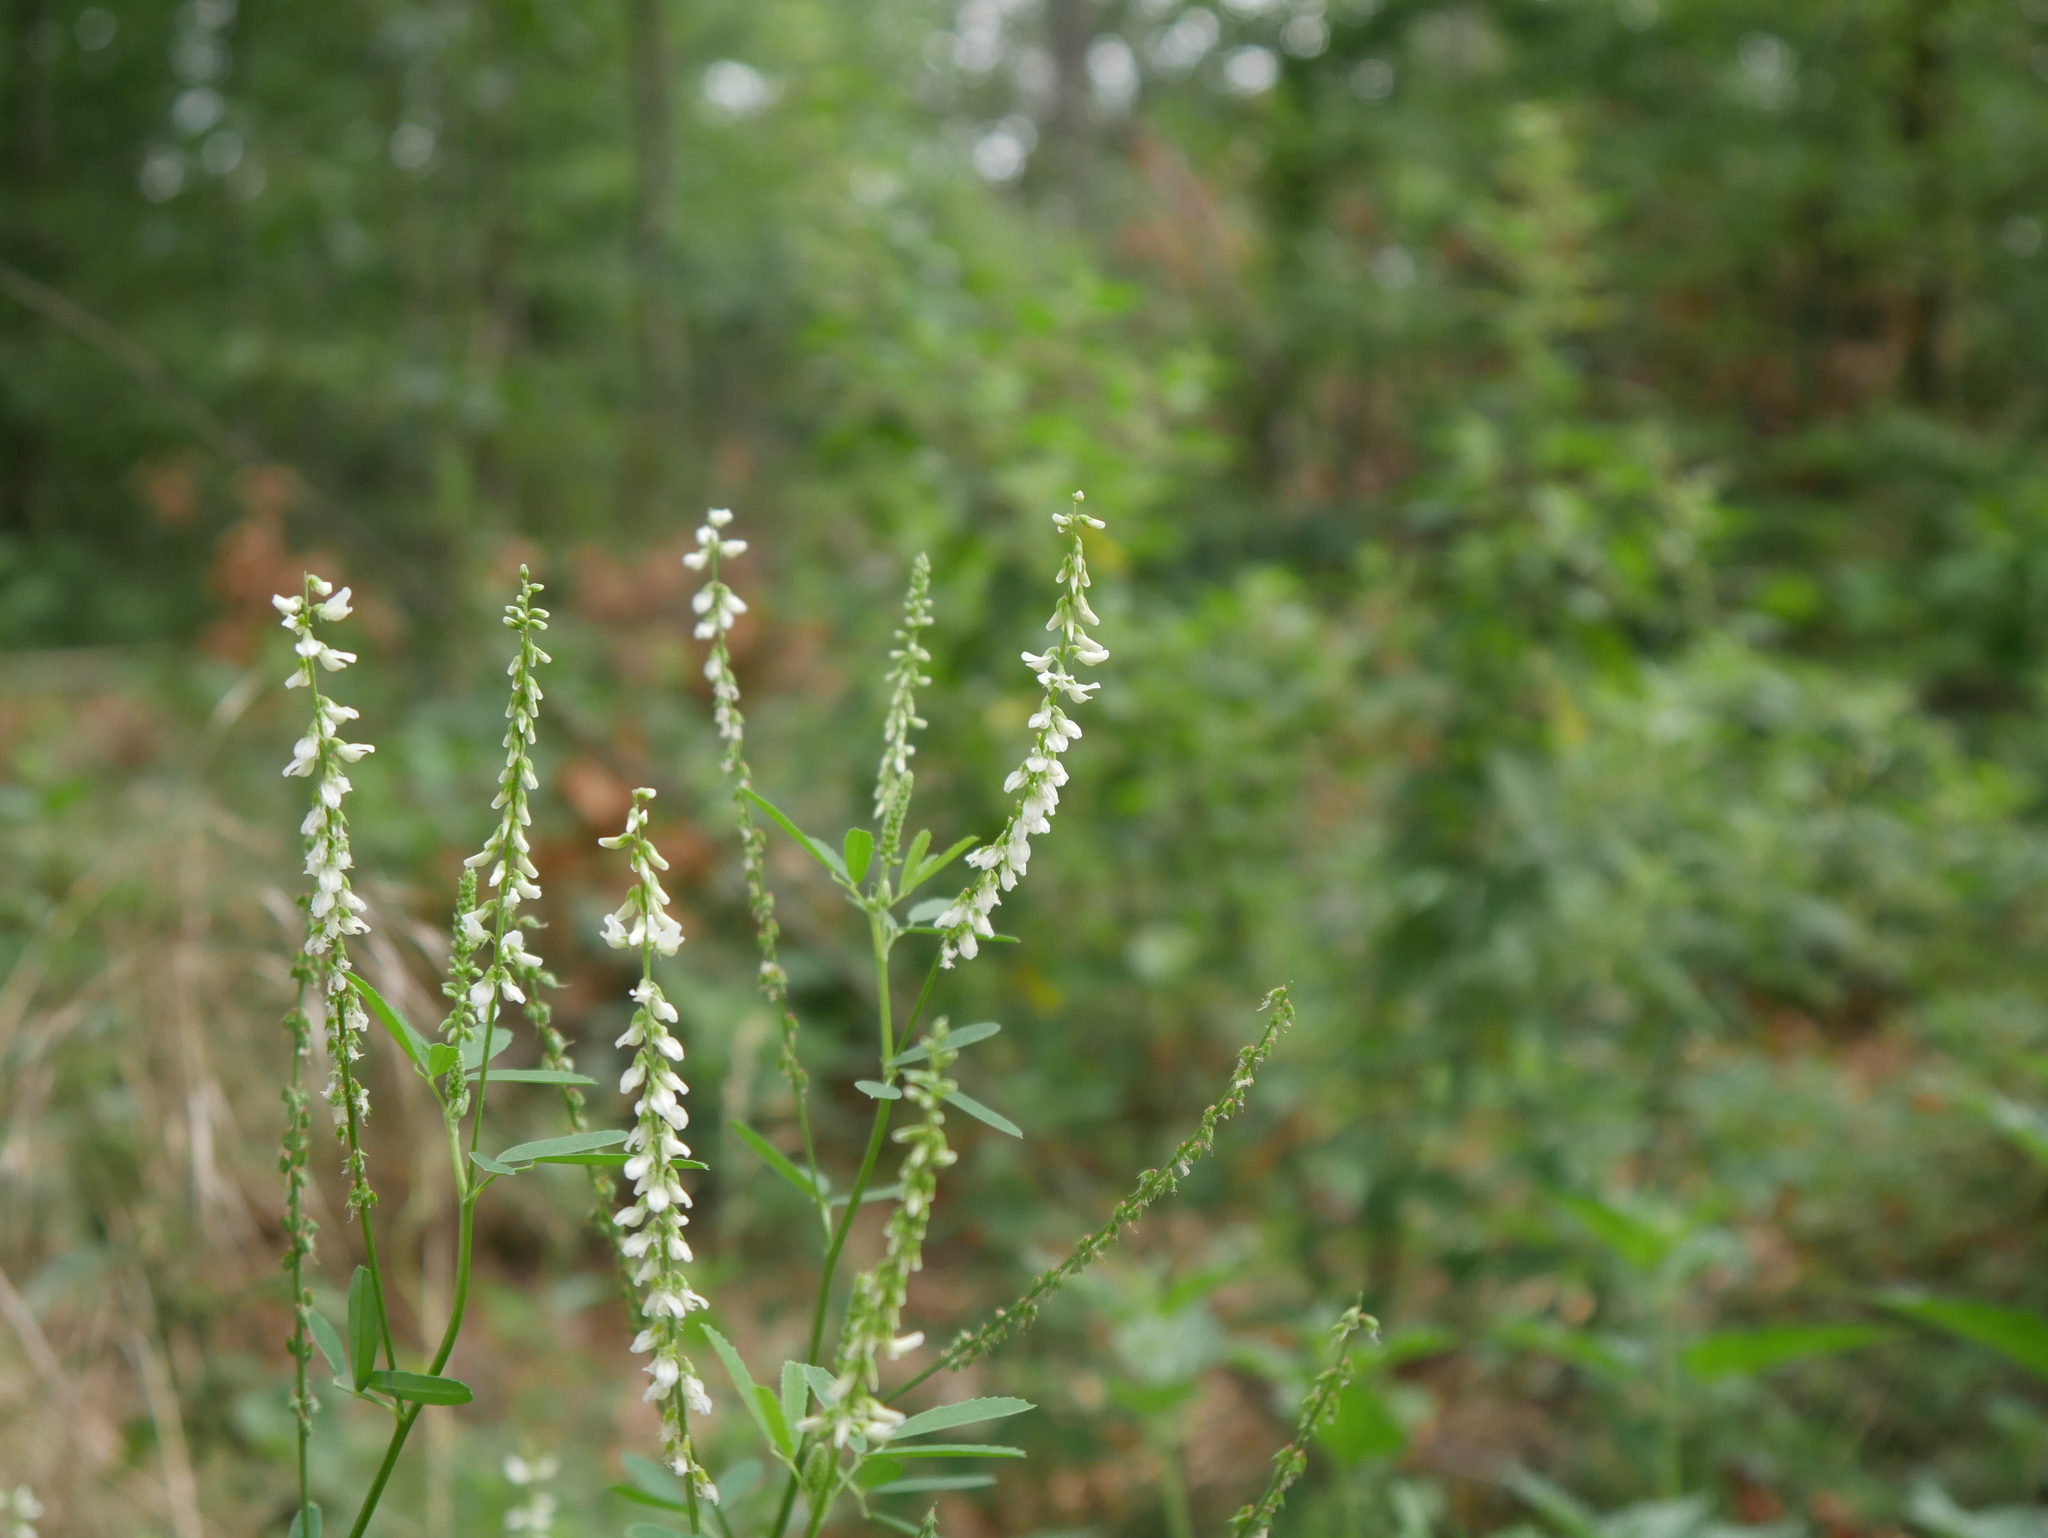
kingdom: Plantae
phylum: Tracheophyta
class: Magnoliopsida
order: Fabales
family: Fabaceae
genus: Melilotus
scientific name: Melilotus albus
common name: White melilot
